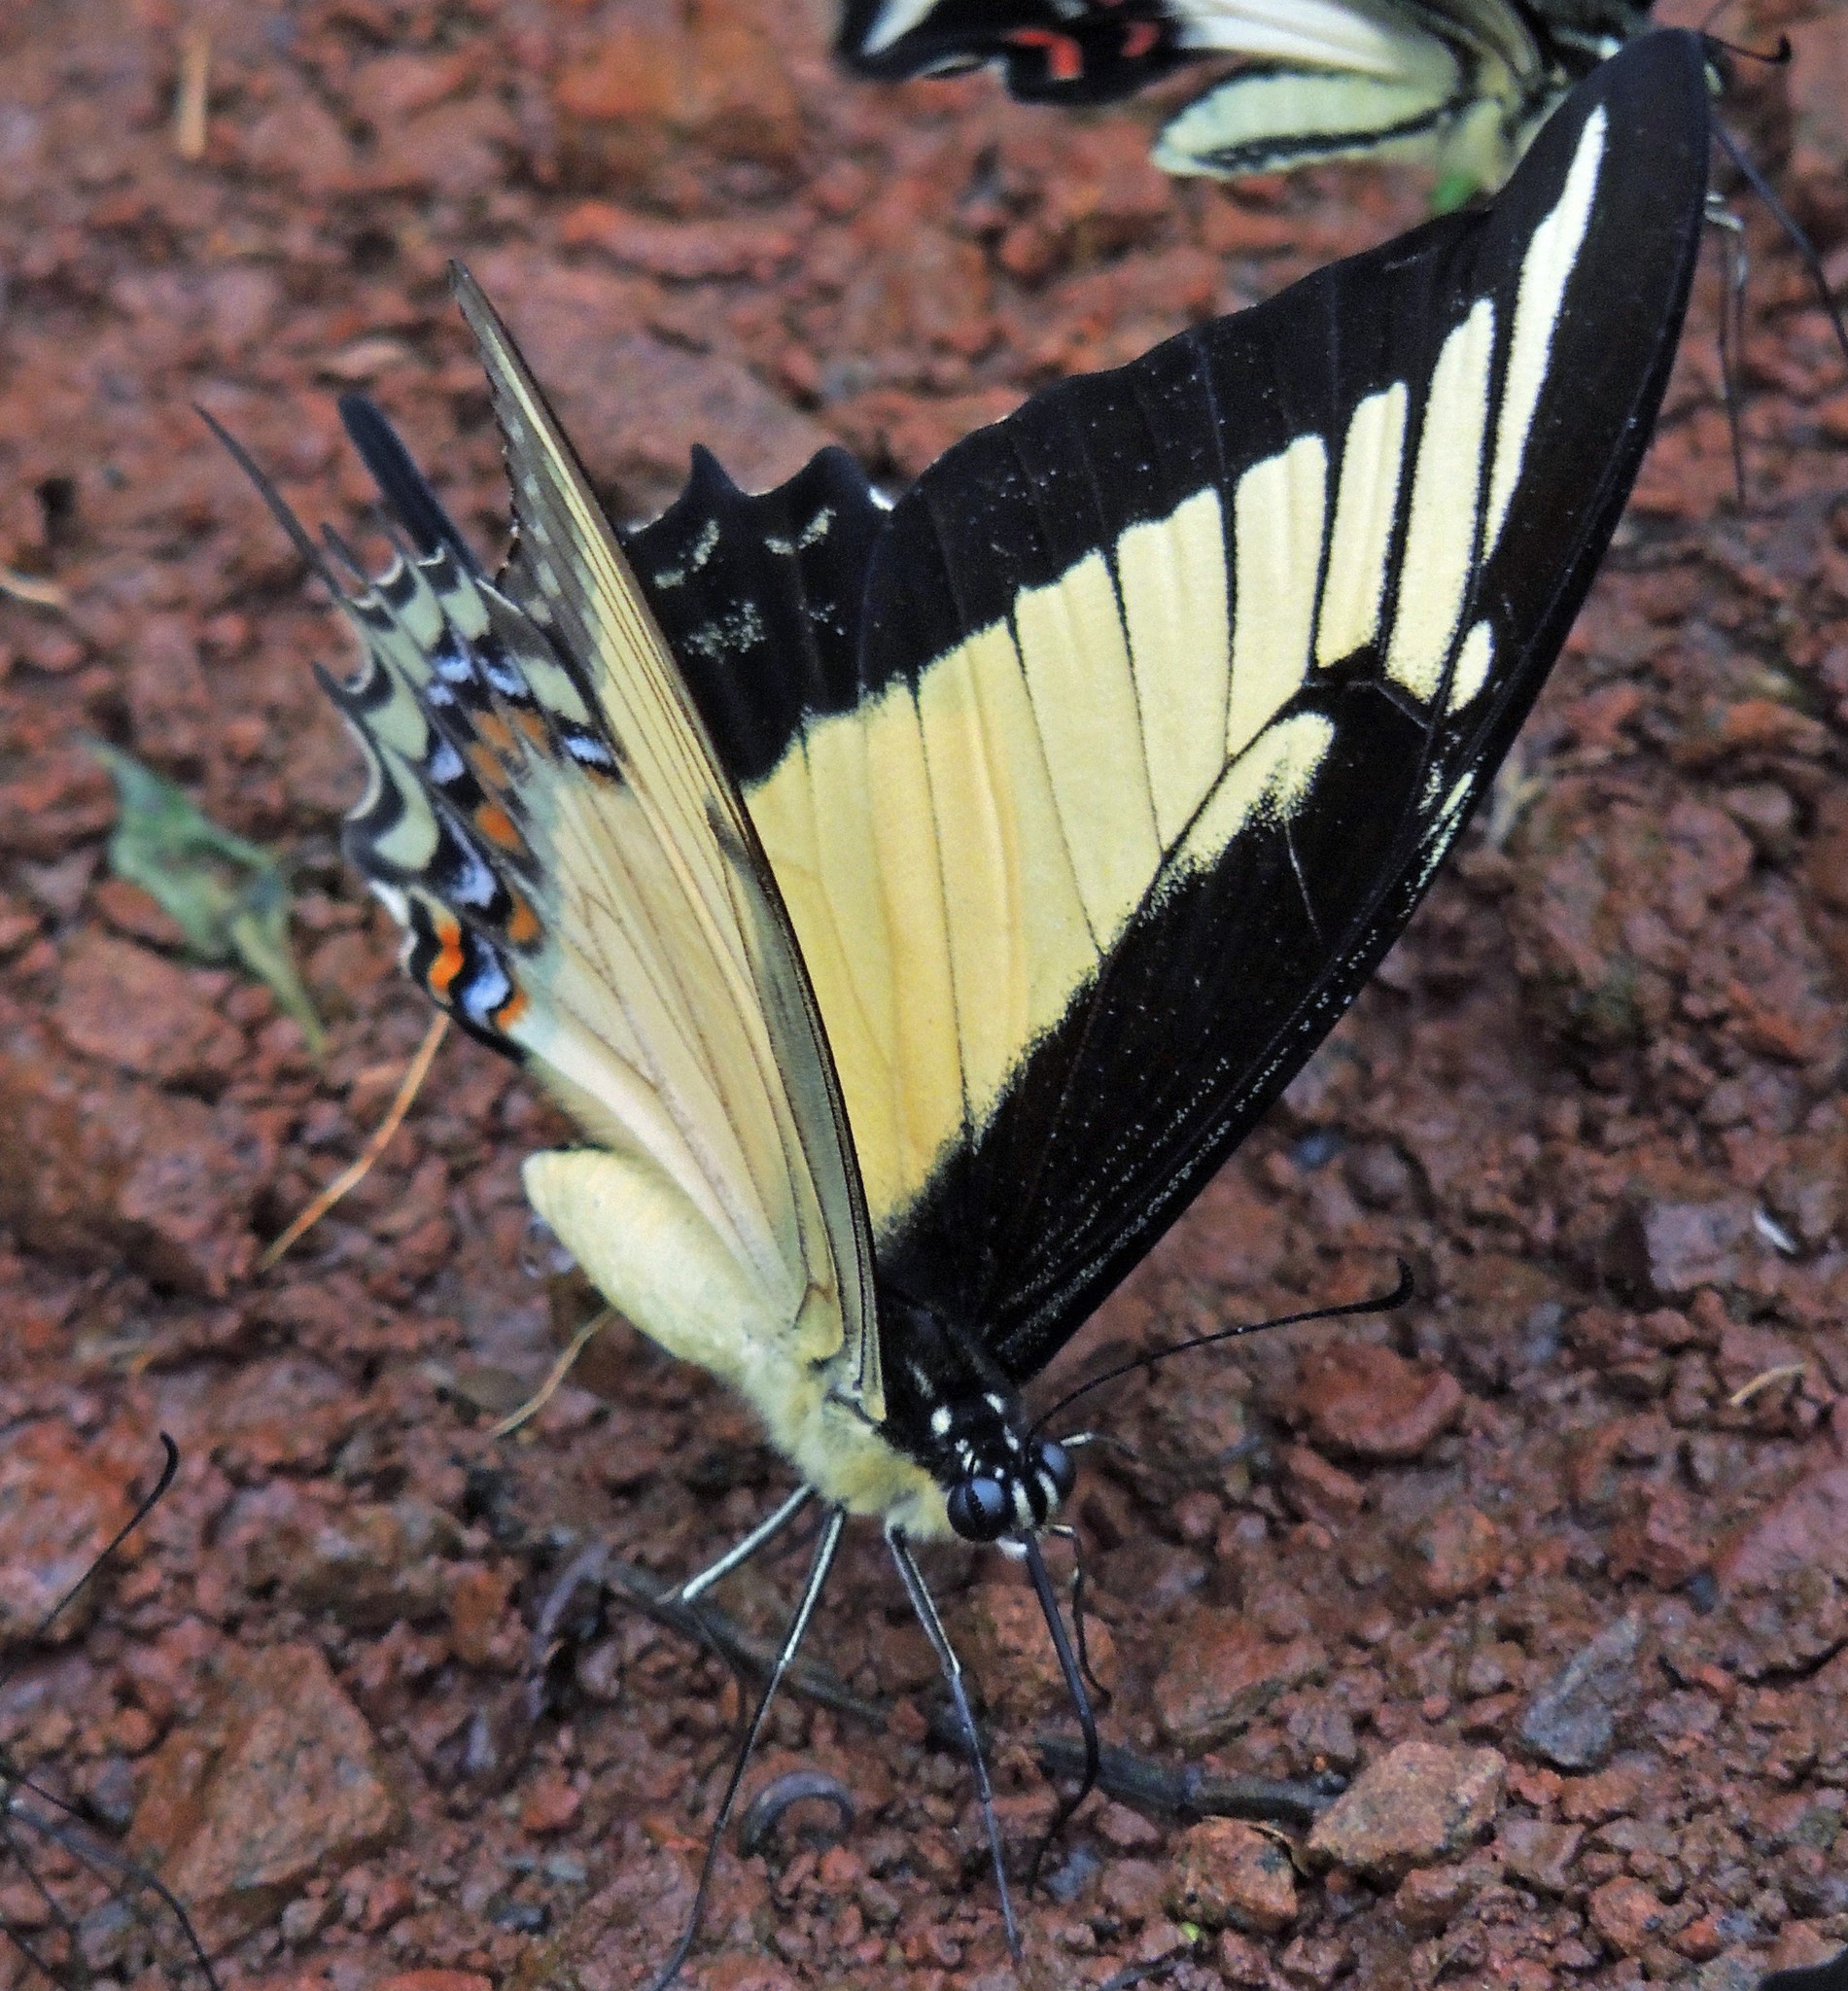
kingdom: Animalia
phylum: Arthropoda
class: Insecta
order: Lepidoptera
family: Papilionidae
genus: Papilio
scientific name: Papilio androgeus
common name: Androgeus swallowtail
